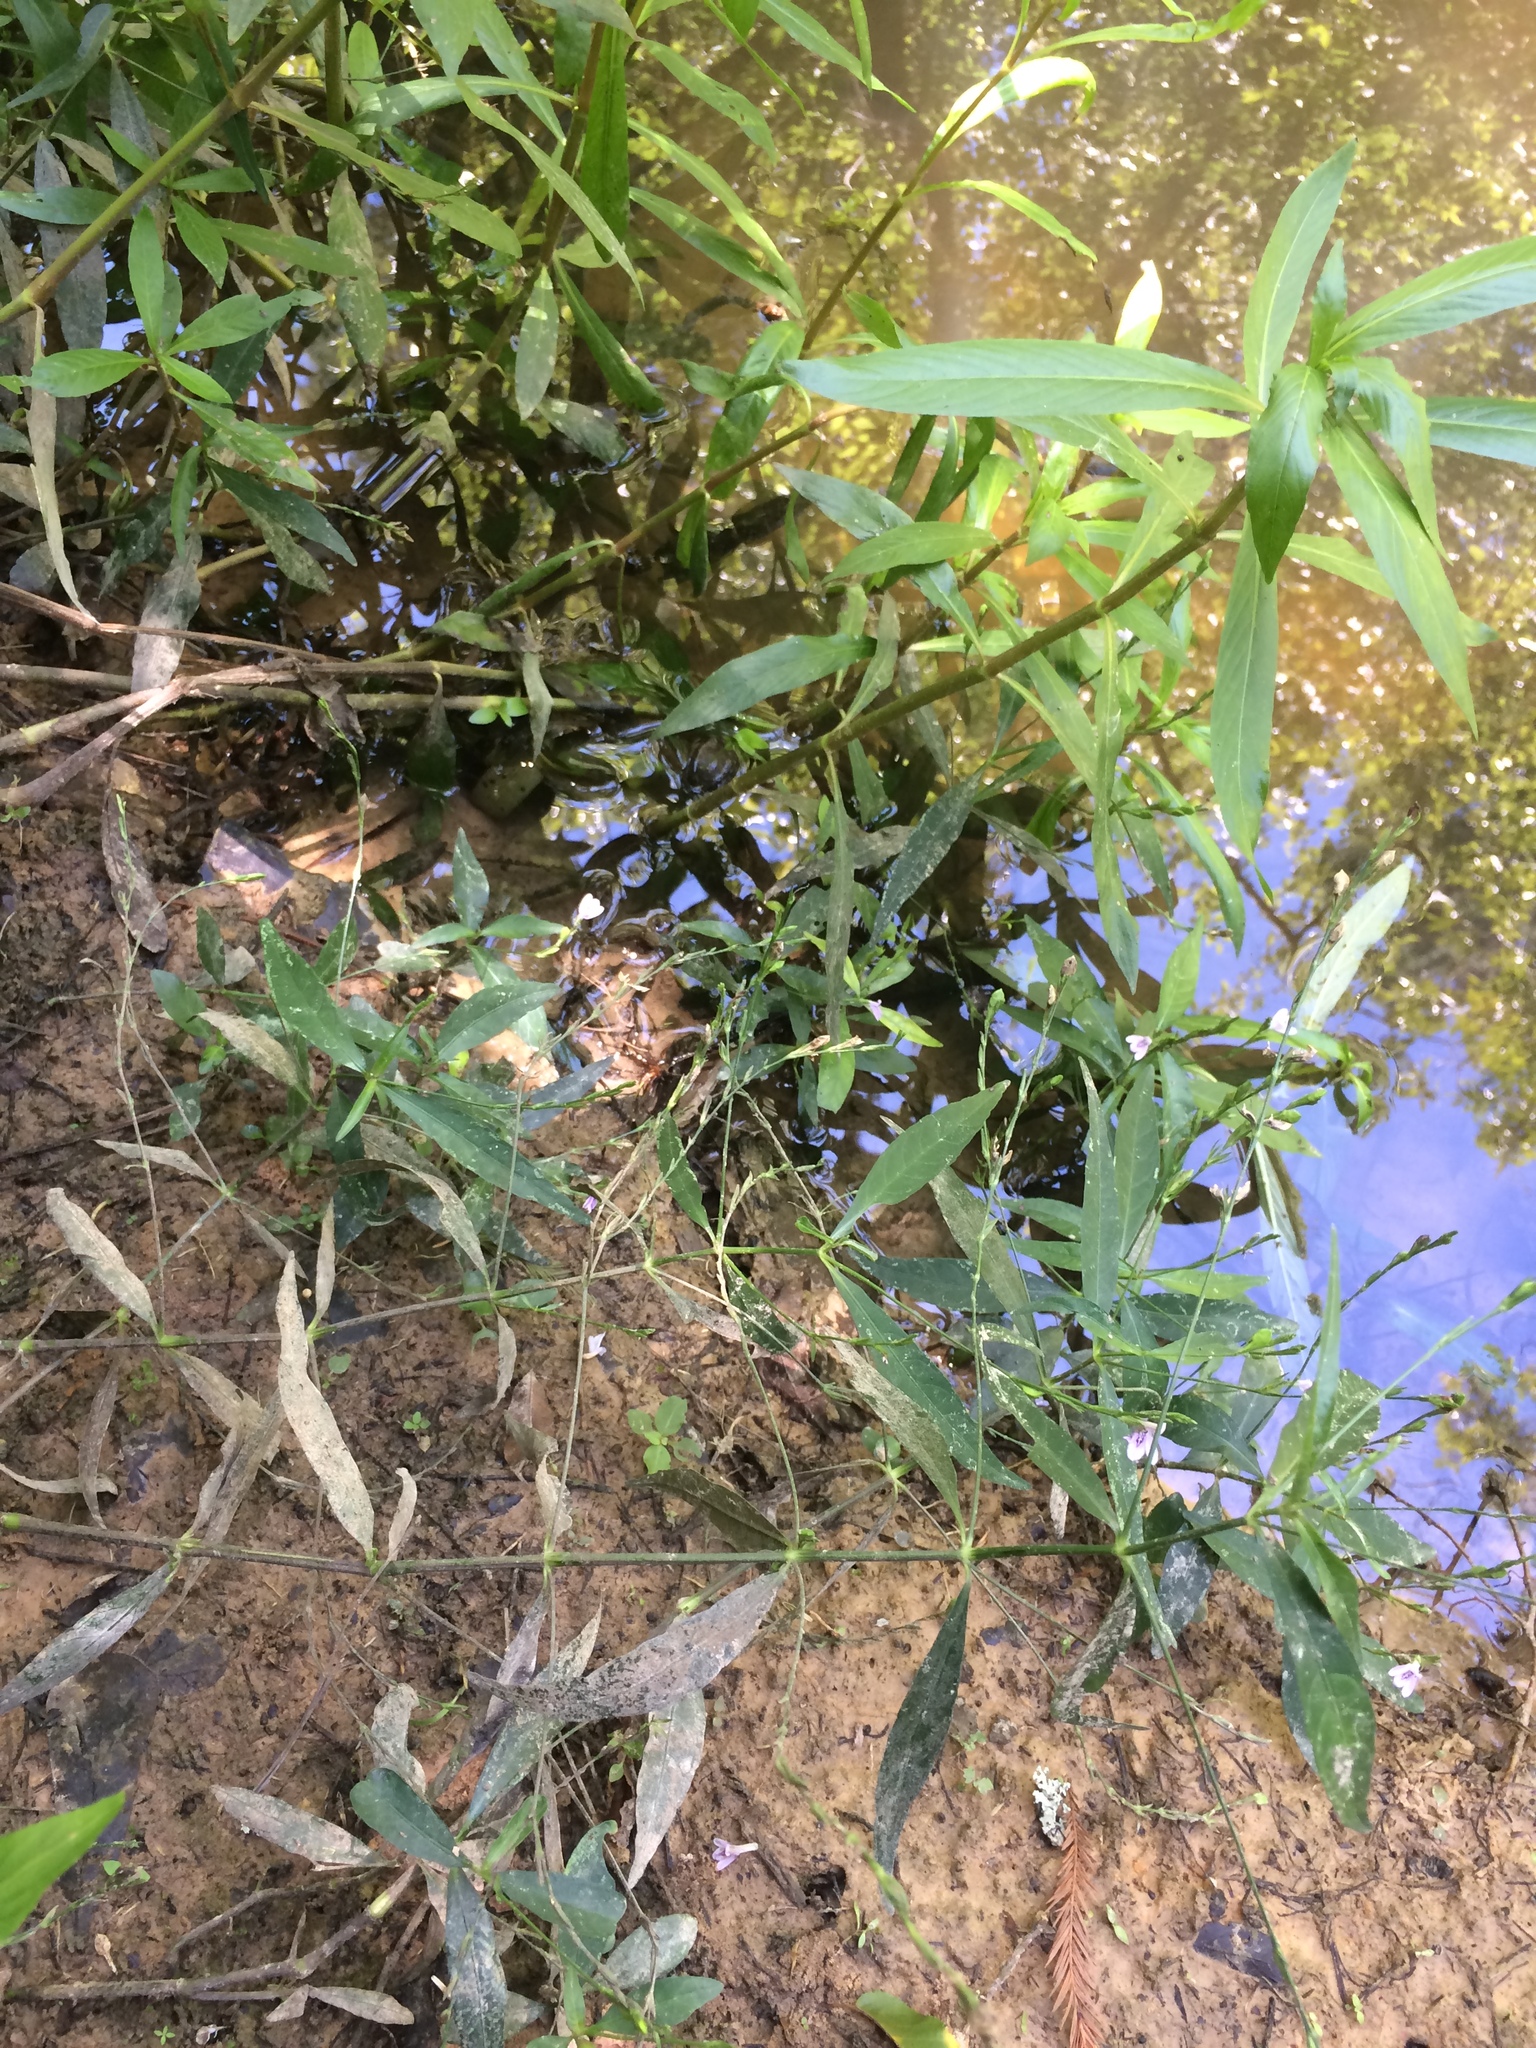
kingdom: Plantae
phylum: Tracheophyta
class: Magnoliopsida
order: Lamiales
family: Acanthaceae
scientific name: Acanthaceae
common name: Acanthaceae
